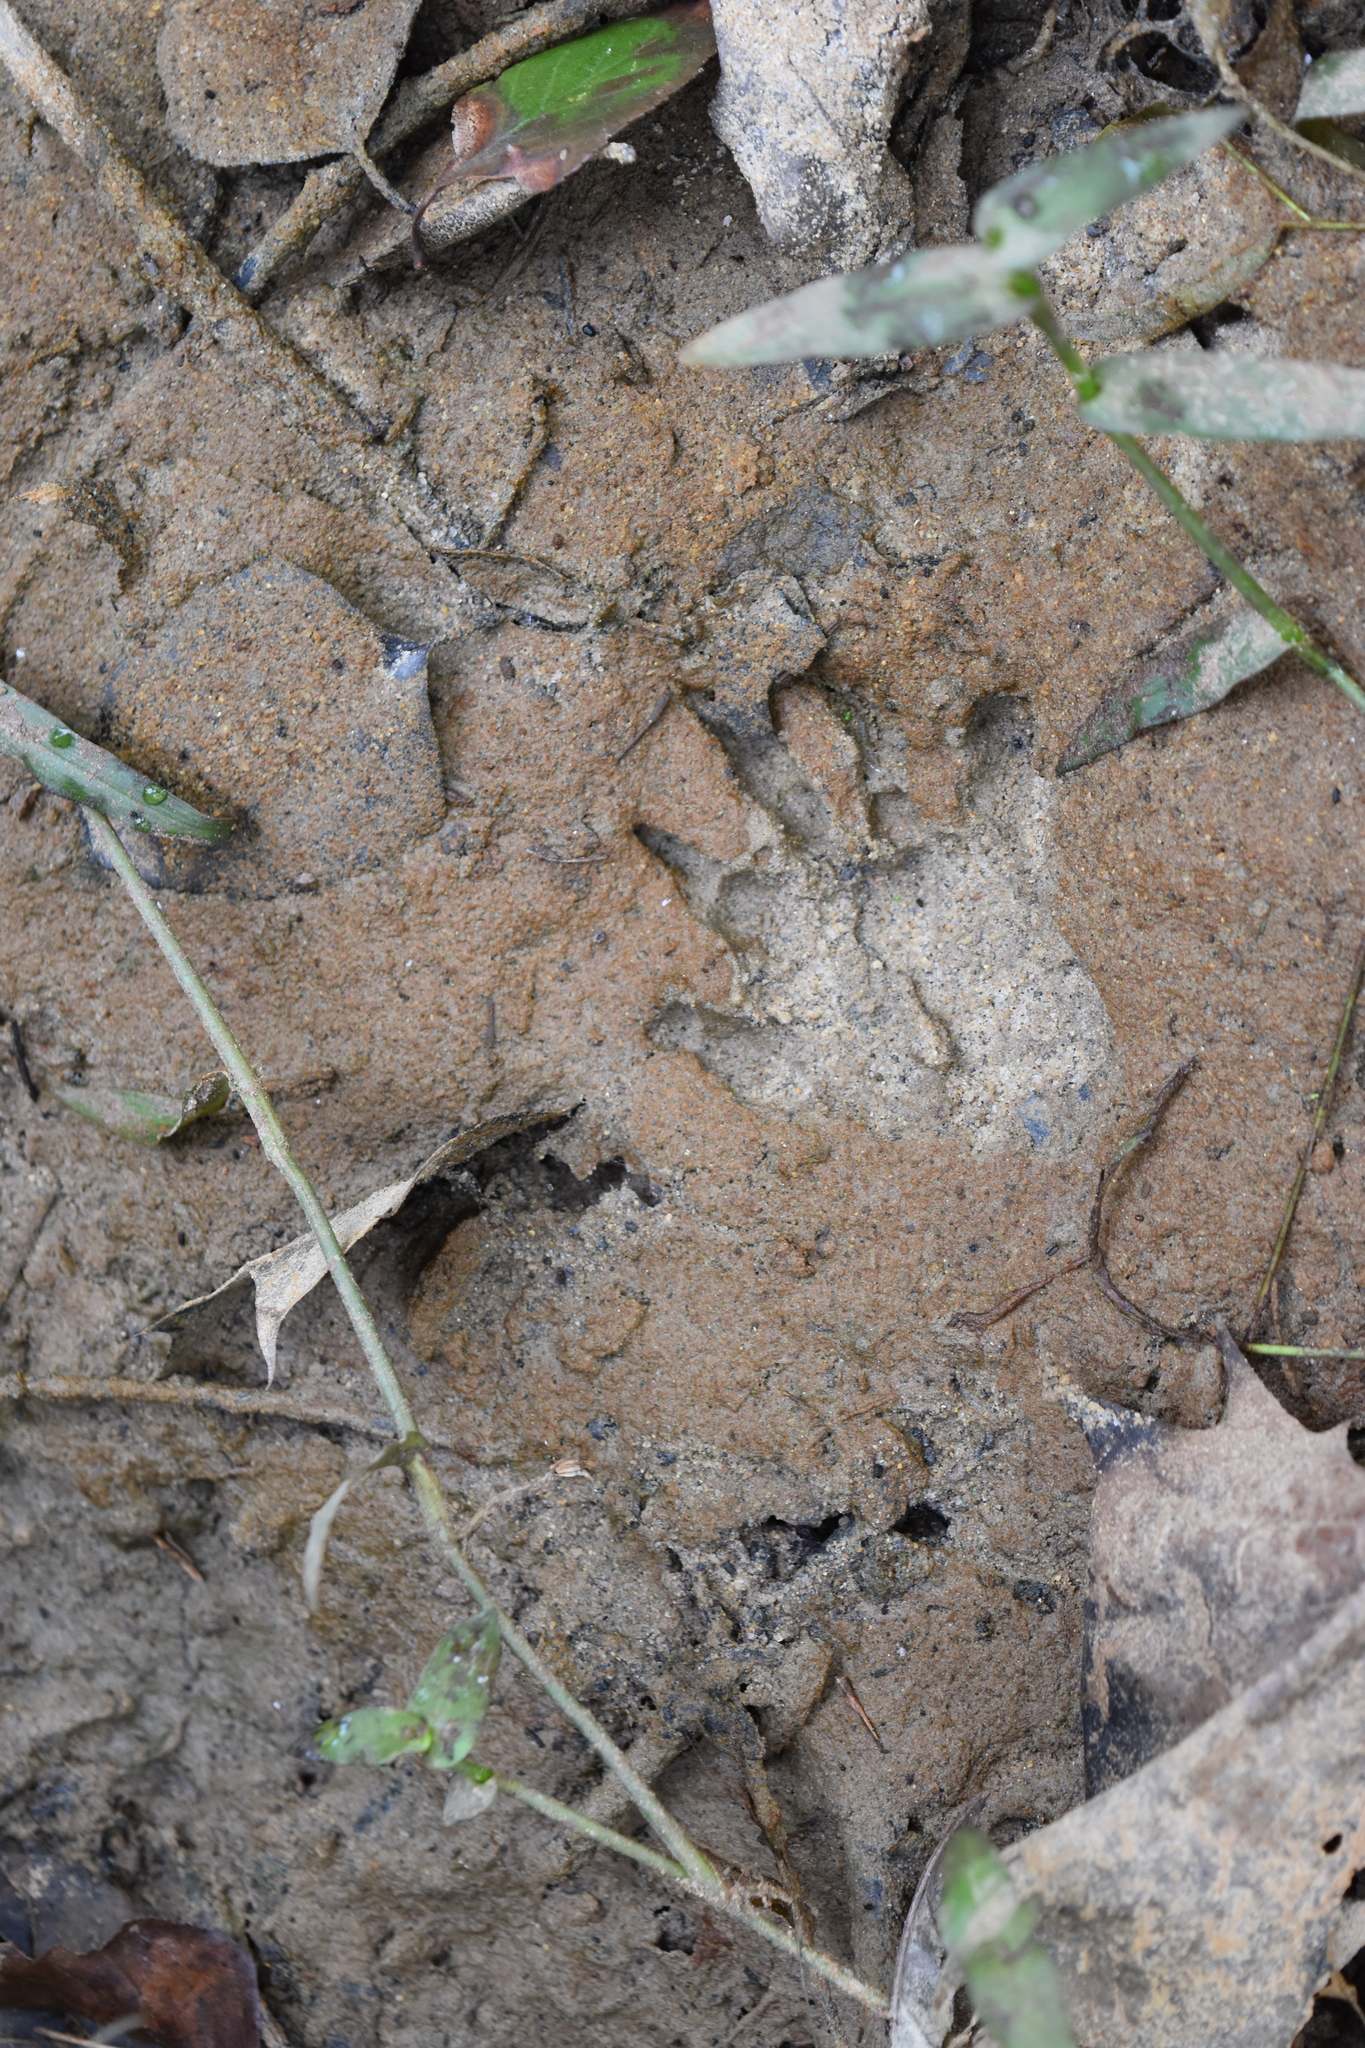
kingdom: Animalia
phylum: Chordata
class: Mammalia
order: Carnivora
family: Procyonidae
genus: Procyon
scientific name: Procyon lotor
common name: Raccoon
